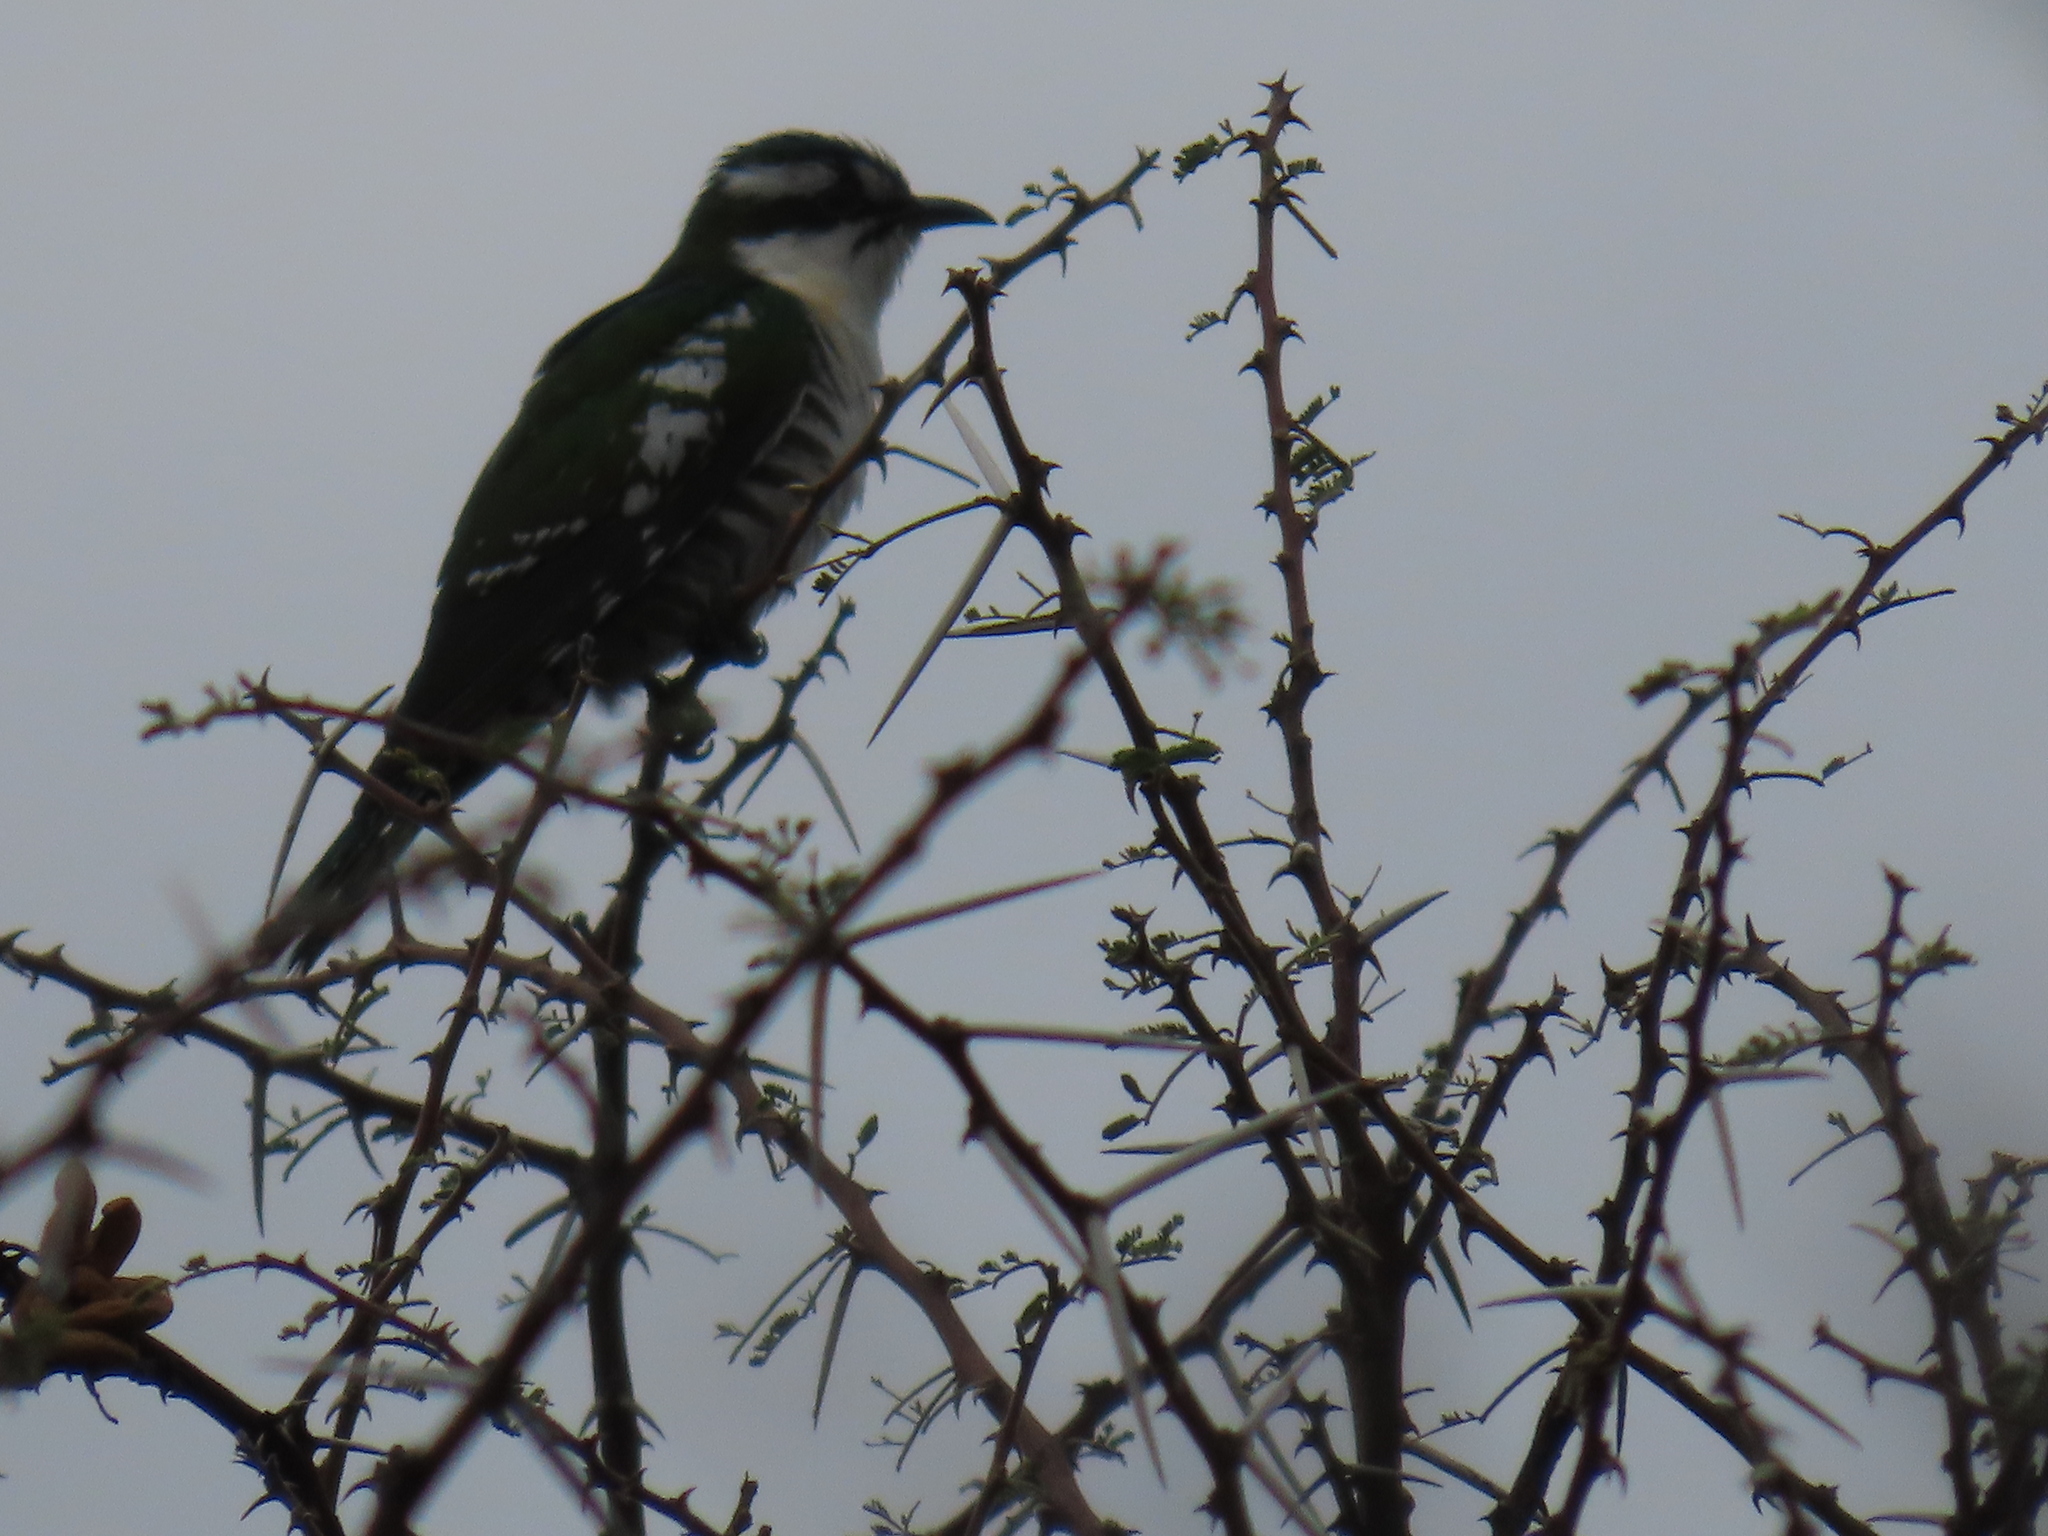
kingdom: Animalia
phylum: Chordata
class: Aves
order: Cuculiformes
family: Cuculidae
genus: Chrysococcyx
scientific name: Chrysococcyx caprius
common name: Diederik cuckoo
